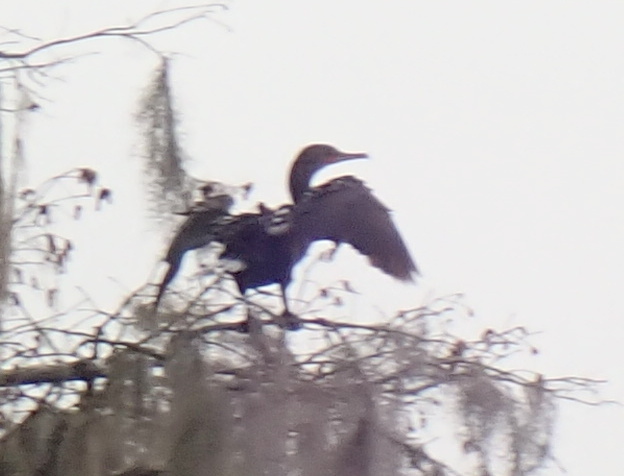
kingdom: Animalia
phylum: Chordata
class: Aves
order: Suliformes
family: Phalacrocoracidae
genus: Phalacrocorax
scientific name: Phalacrocorax auritus
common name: Double-crested cormorant
